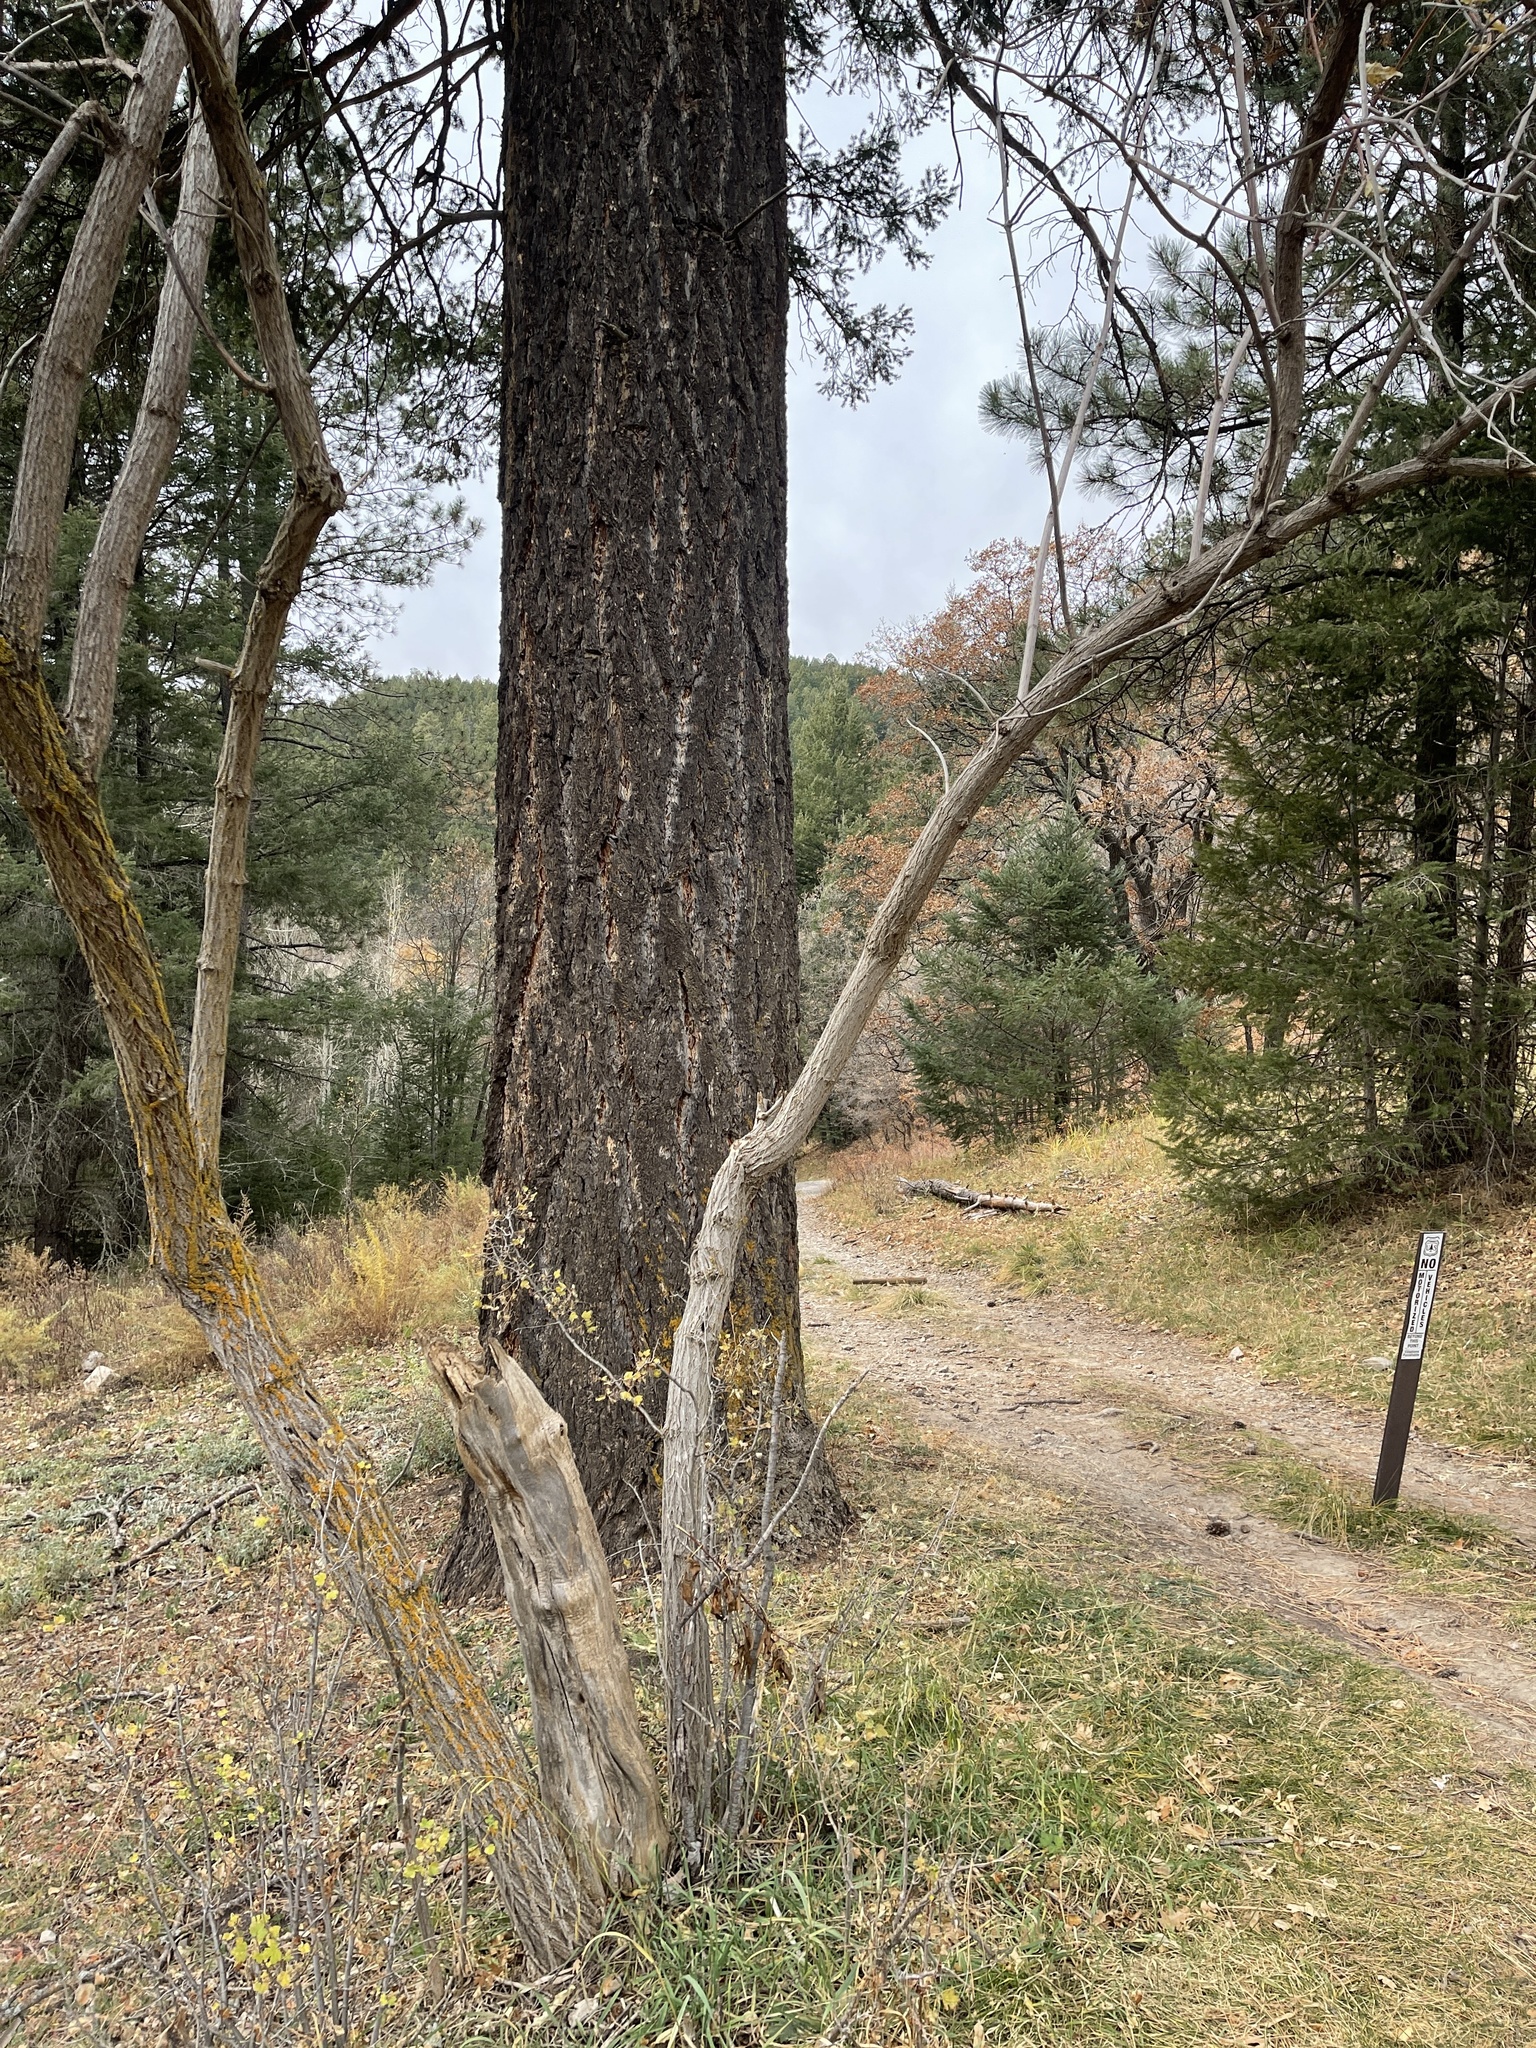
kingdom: Plantae
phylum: Tracheophyta
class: Pinopsida
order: Pinales
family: Pinaceae
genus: Pseudotsuga
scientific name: Pseudotsuga menziesii
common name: Douglas fir
